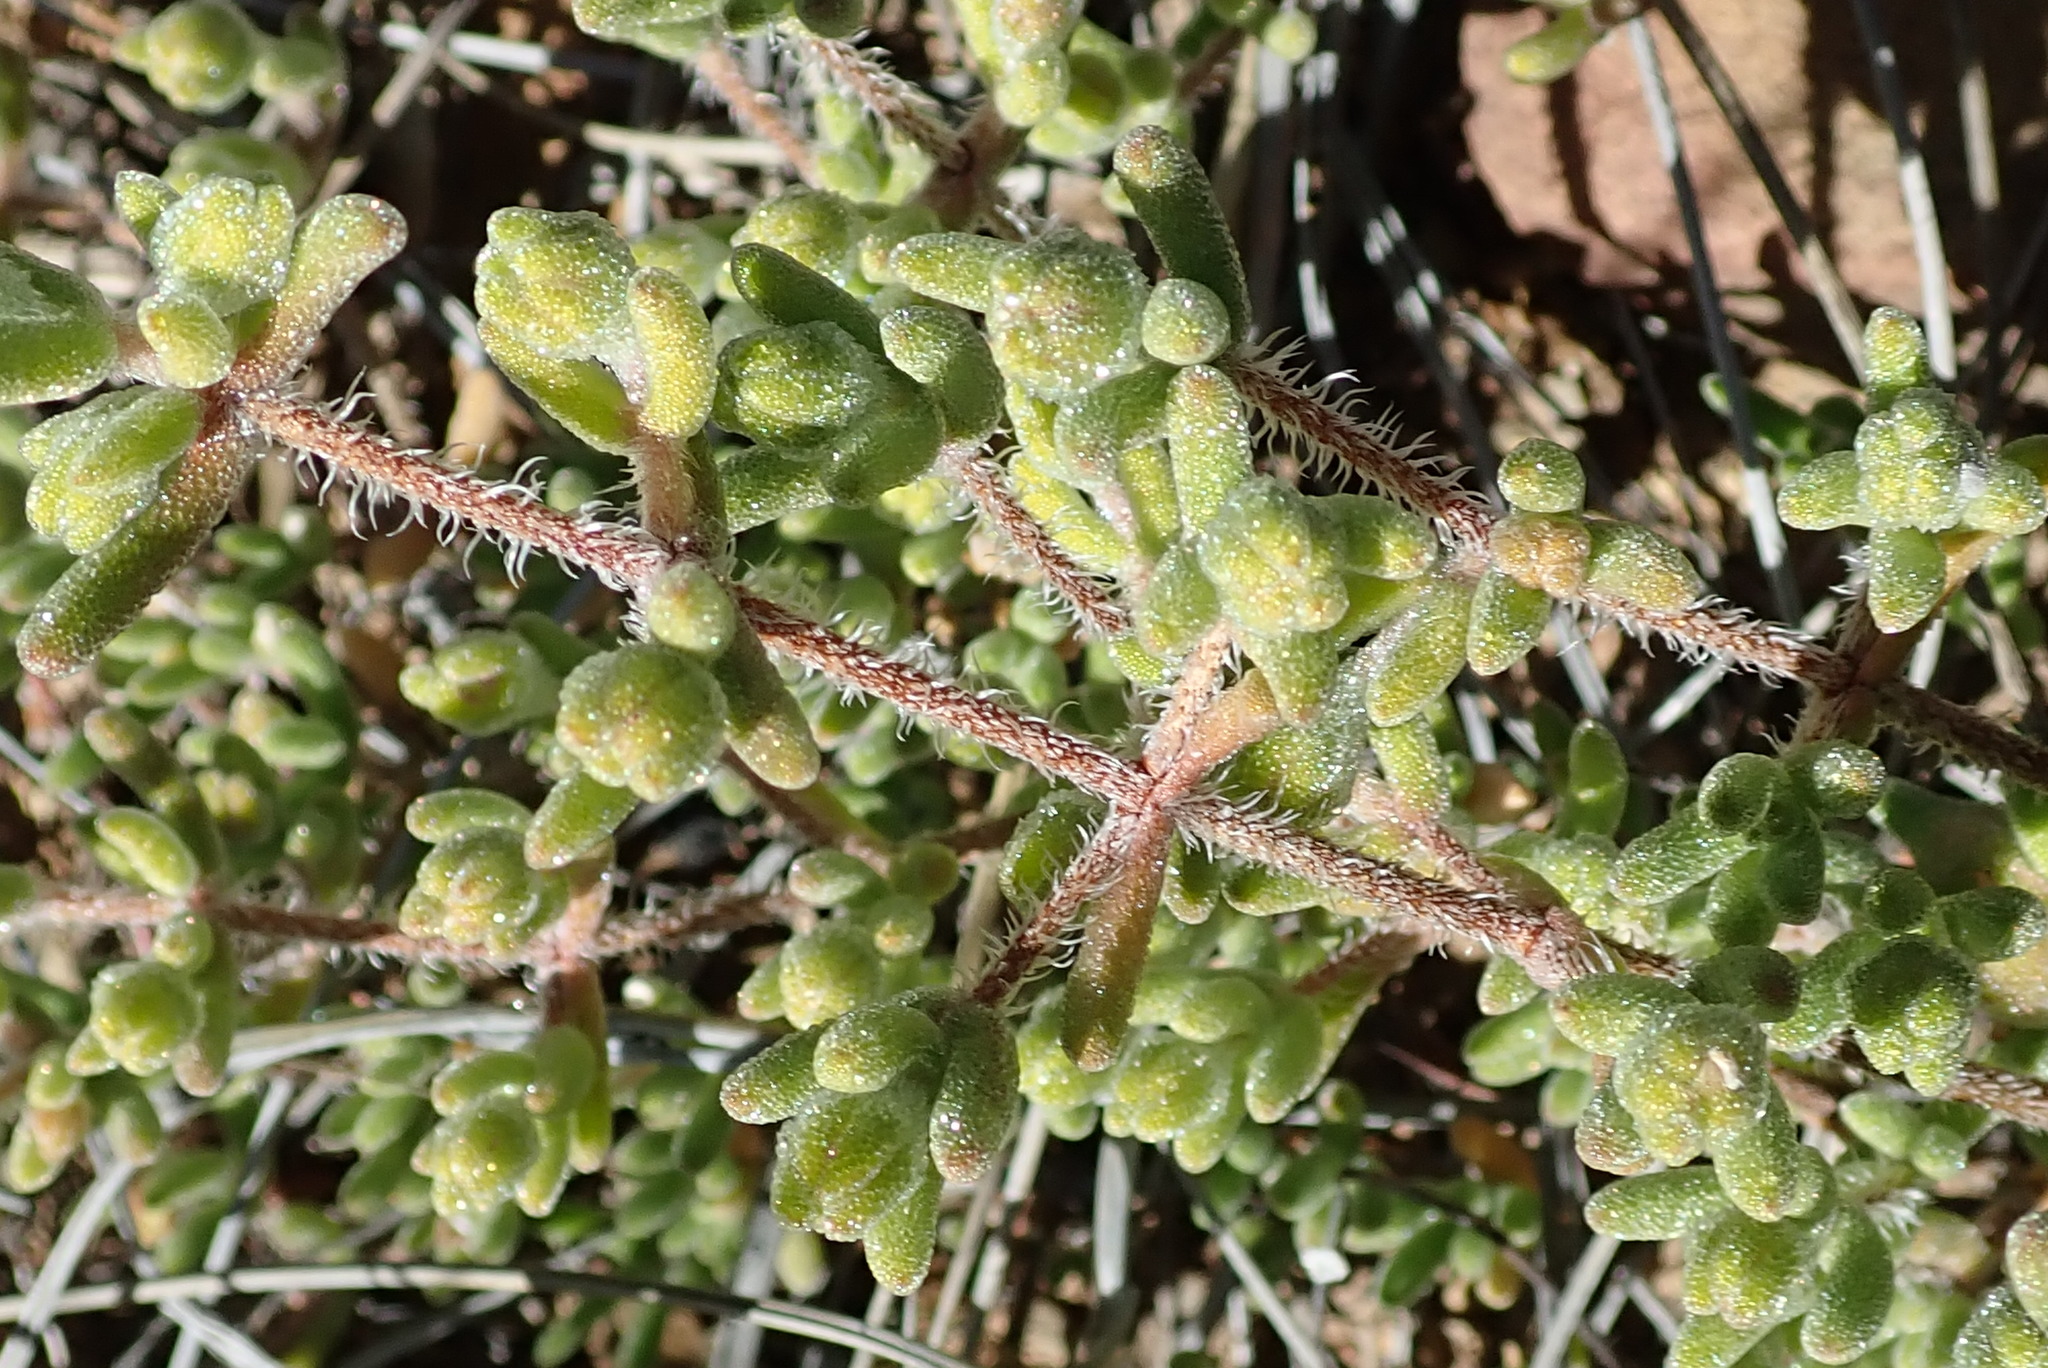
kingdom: Plantae
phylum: Tracheophyta
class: Magnoliopsida
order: Caryophyllales
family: Aizoaceae
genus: Drosanthemum
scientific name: Drosanthemum hispidum
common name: Hairy dewflower
